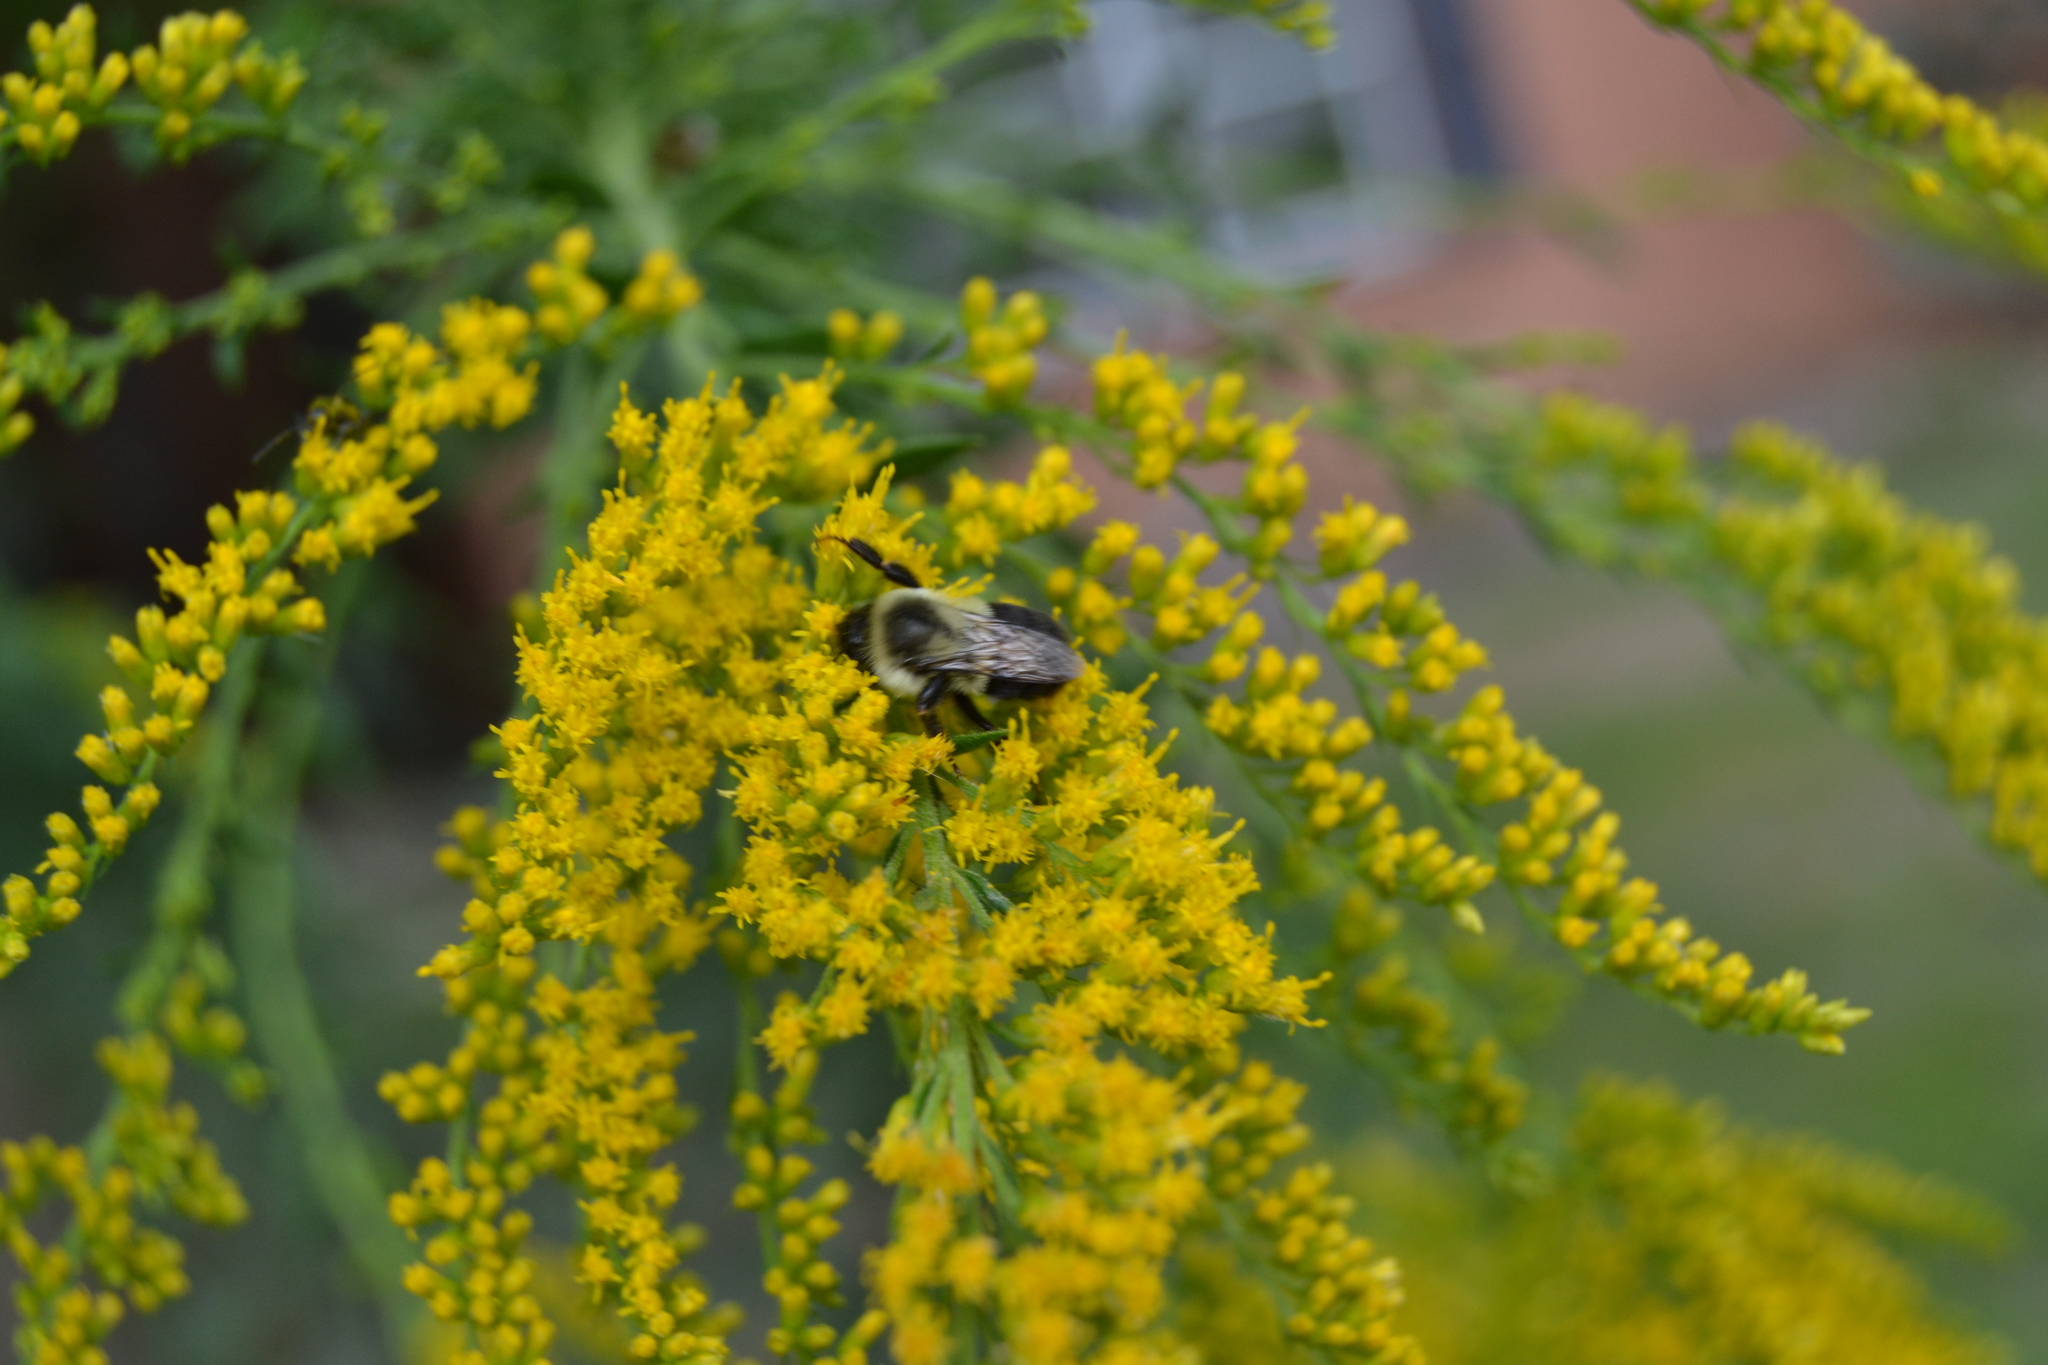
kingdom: Animalia
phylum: Arthropoda
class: Insecta
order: Hymenoptera
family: Apidae
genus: Bombus
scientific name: Bombus impatiens
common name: Common eastern bumble bee
